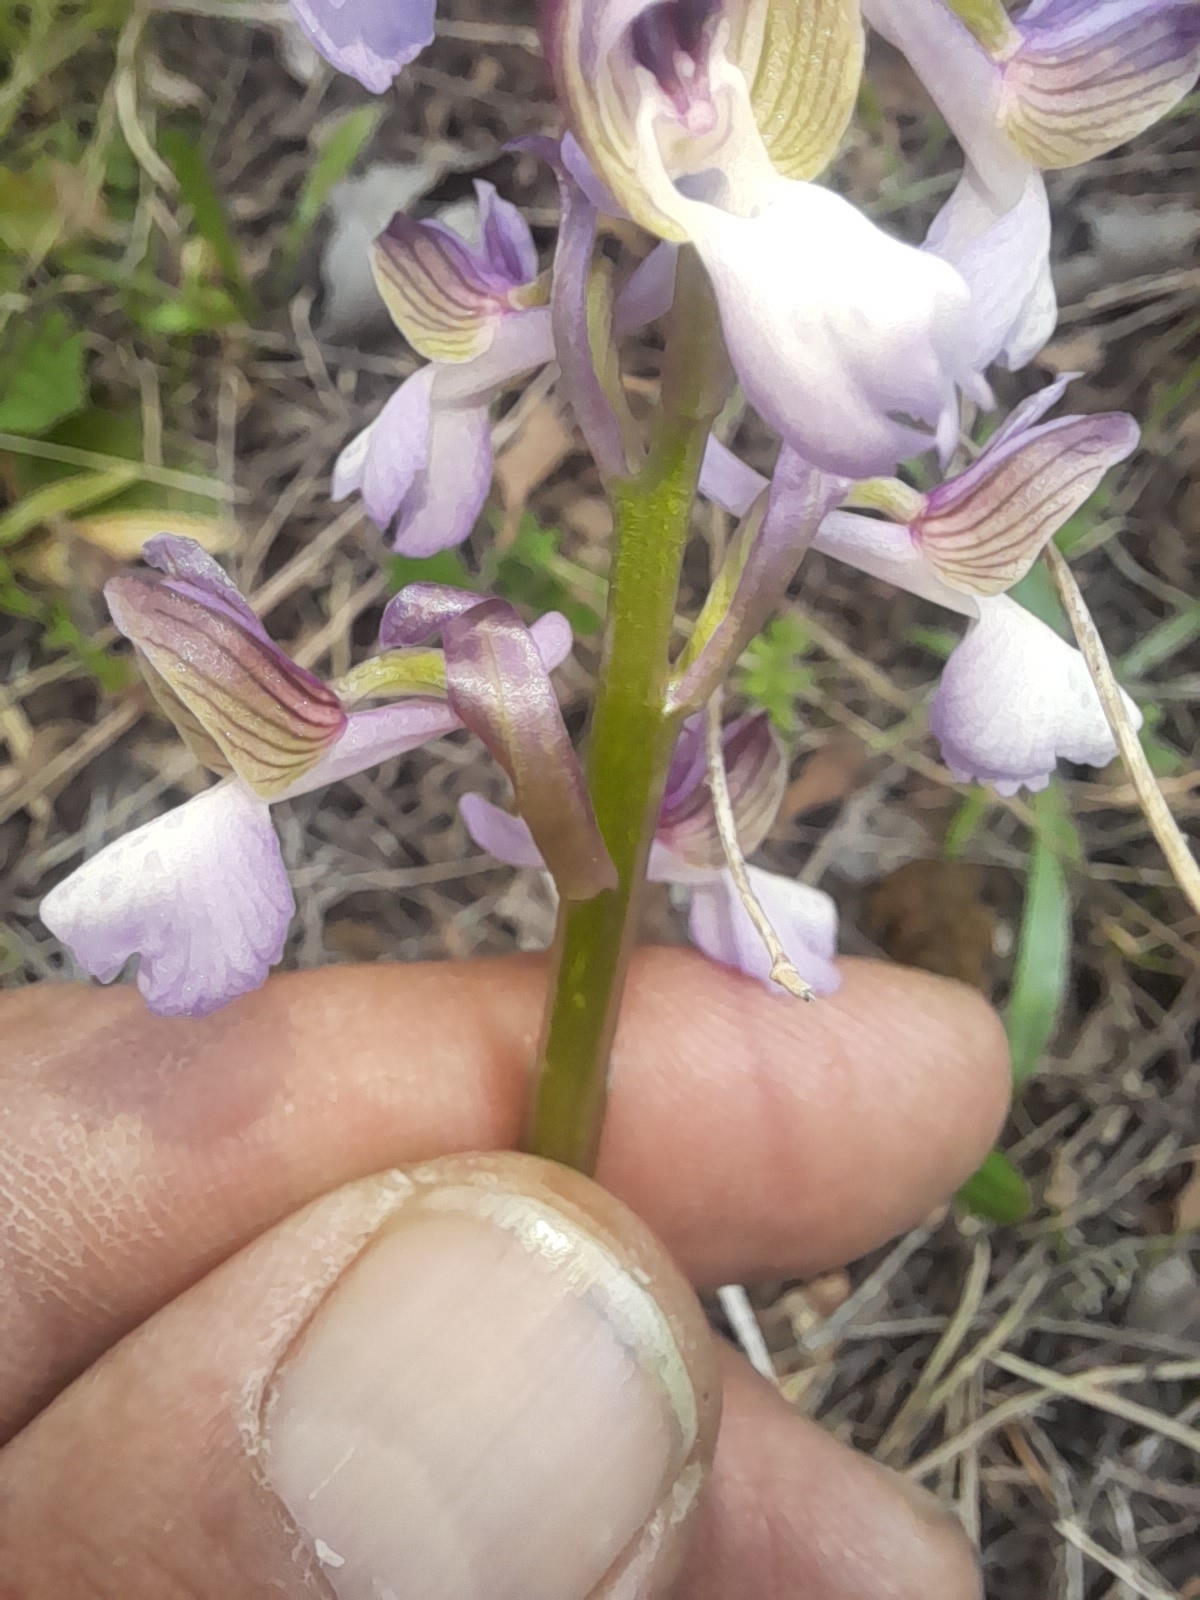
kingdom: Plantae
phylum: Tracheophyta
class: Liliopsida
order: Asparagales
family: Orchidaceae
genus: Anacamptis
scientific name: Anacamptis morio
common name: Green-winged orchid
